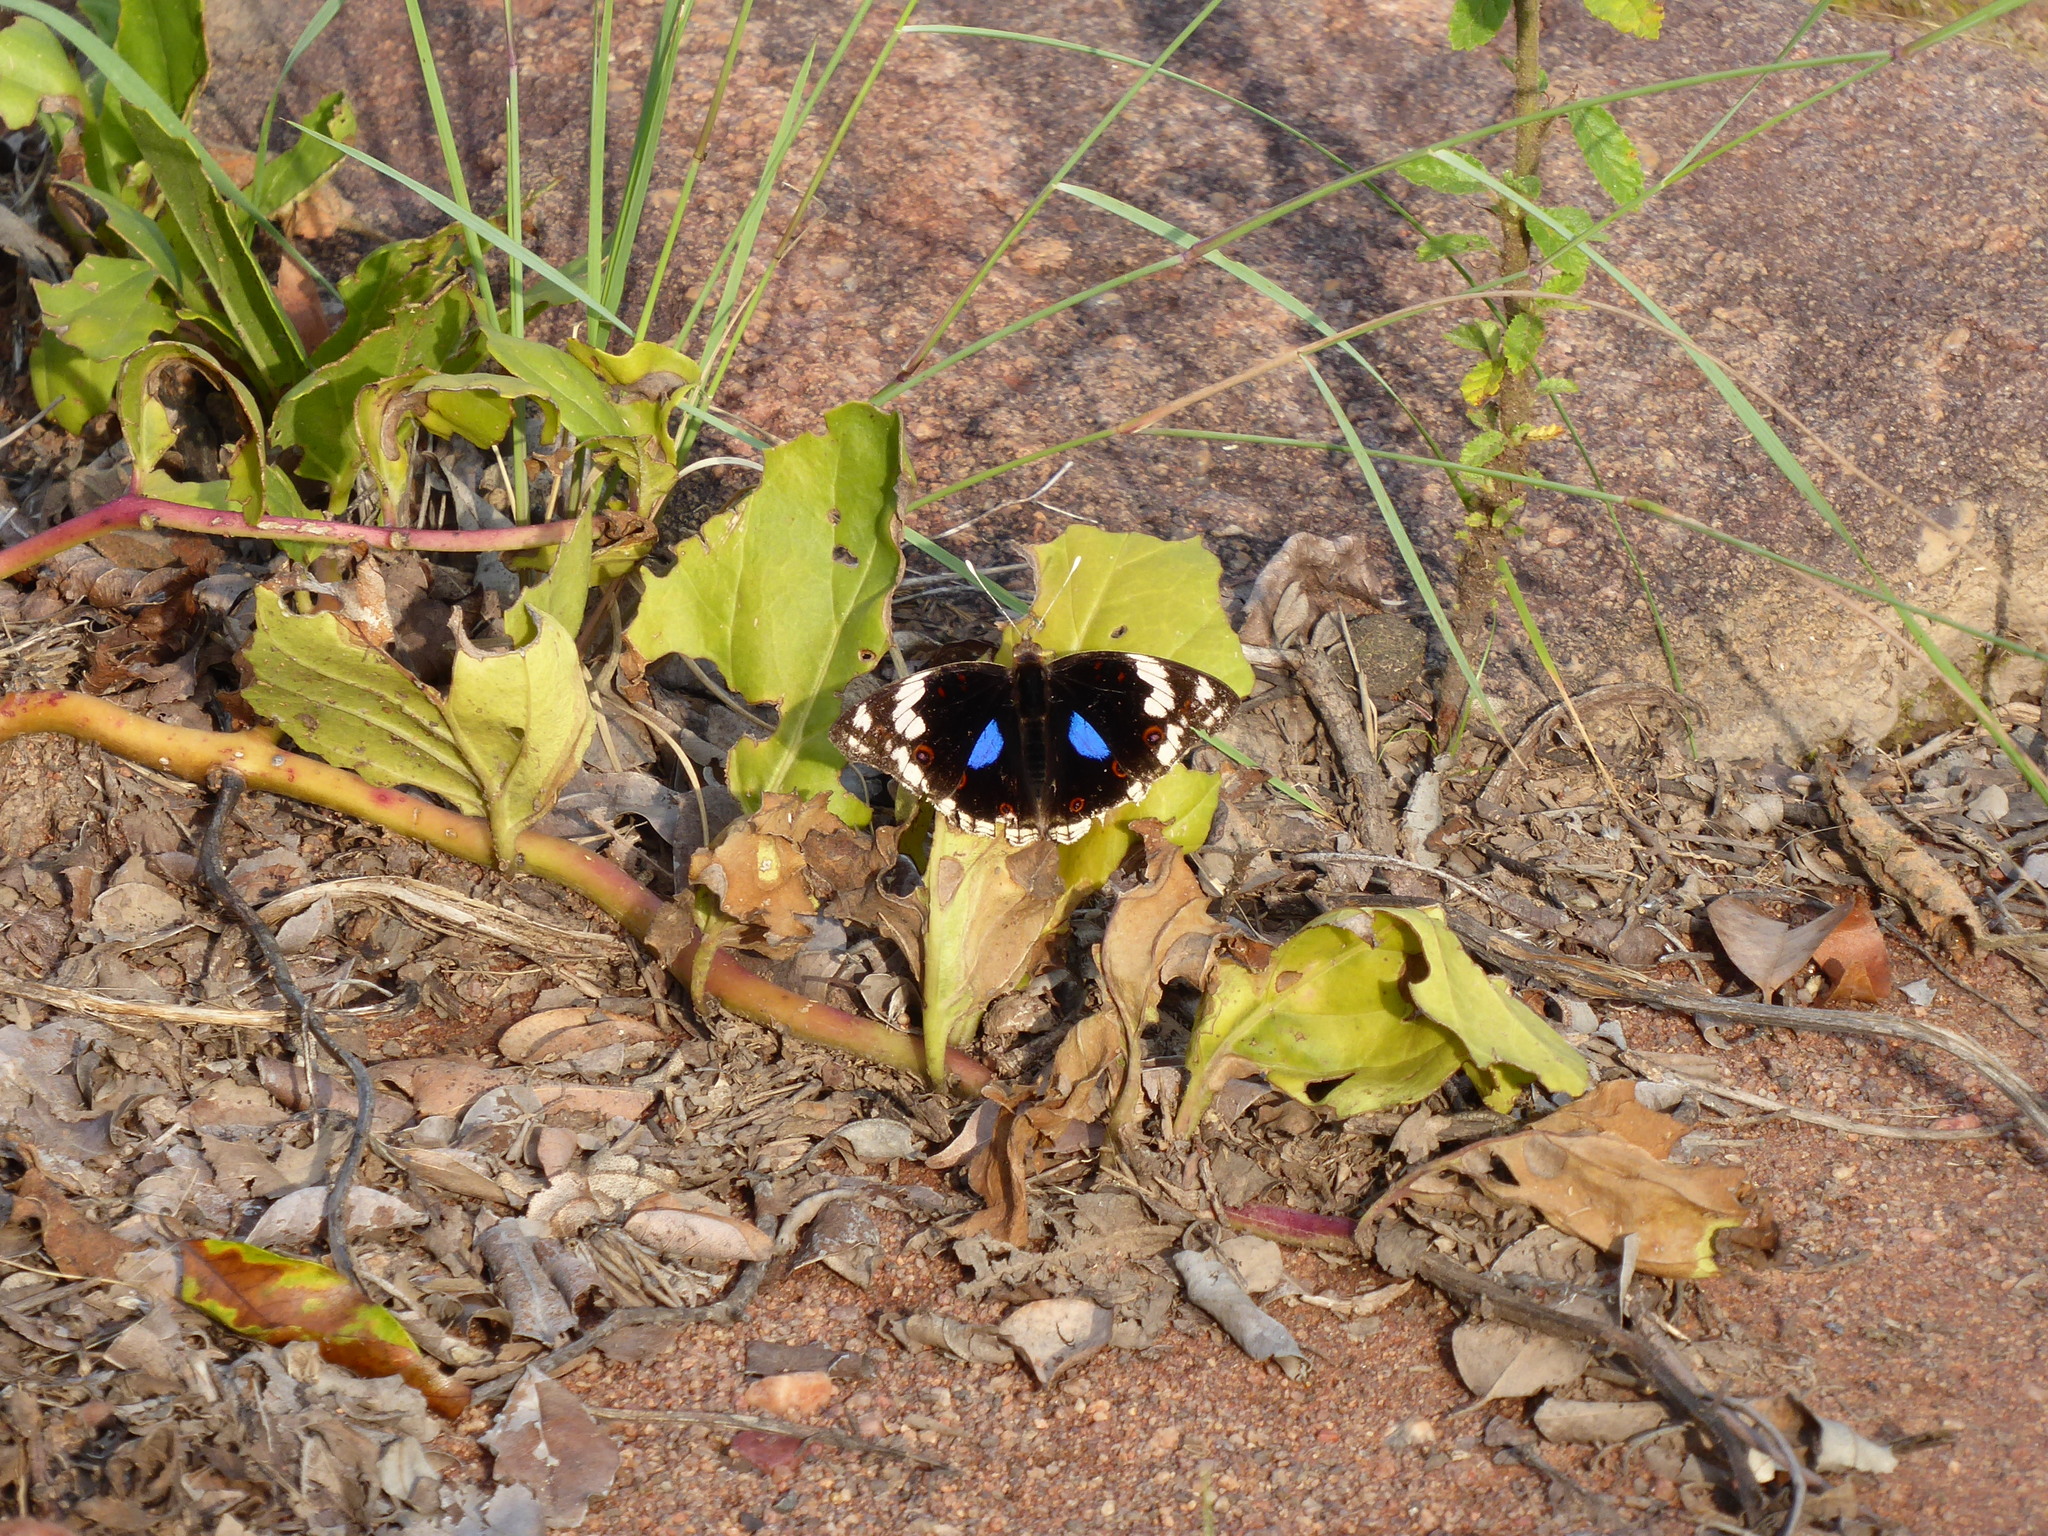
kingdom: Animalia
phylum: Arthropoda
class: Insecta
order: Lepidoptera
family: Nymphalidae
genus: Junonia
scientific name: Junonia oenone
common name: Dark blue pansy
